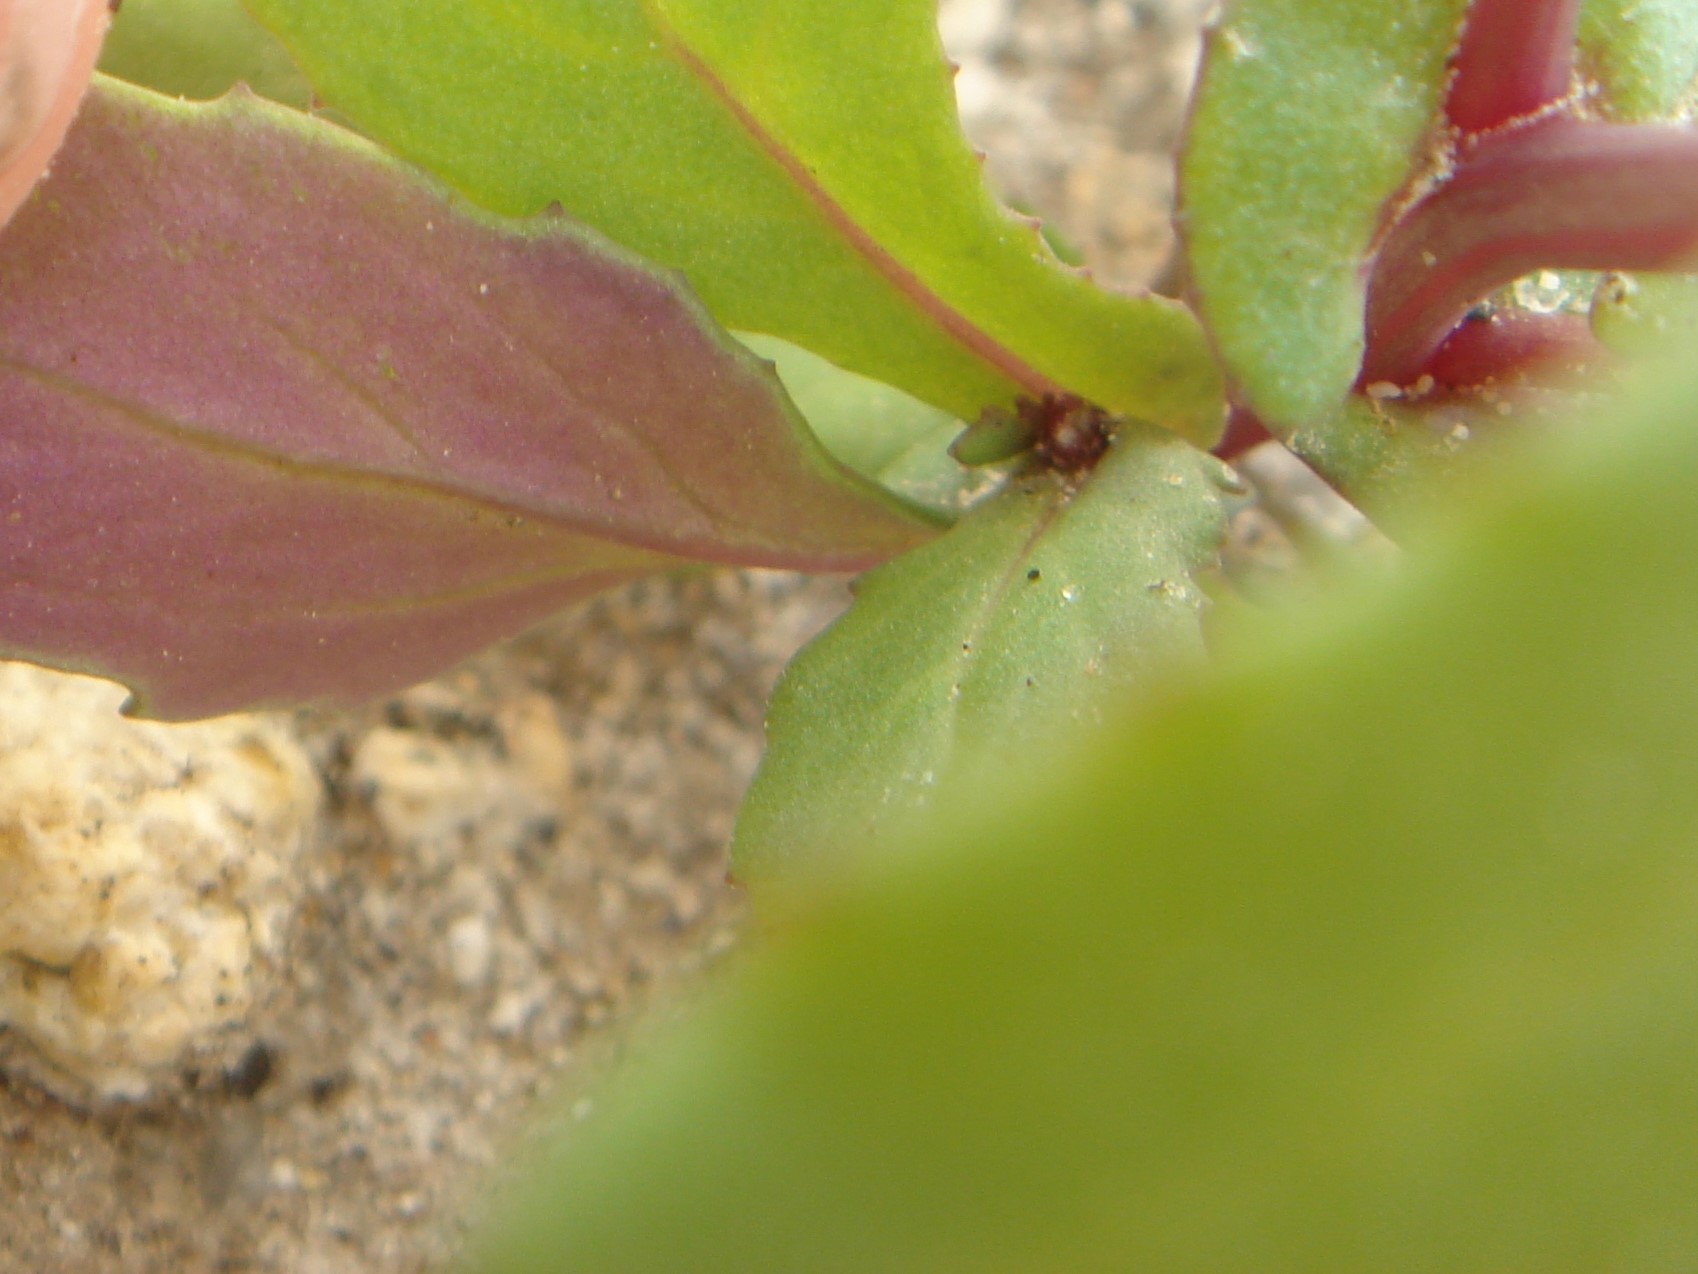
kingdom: Plantae
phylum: Tracheophyta
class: Magnoliopsida
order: Asterales
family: Asteraceae
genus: Senecio
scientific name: Senecio mohavensis
